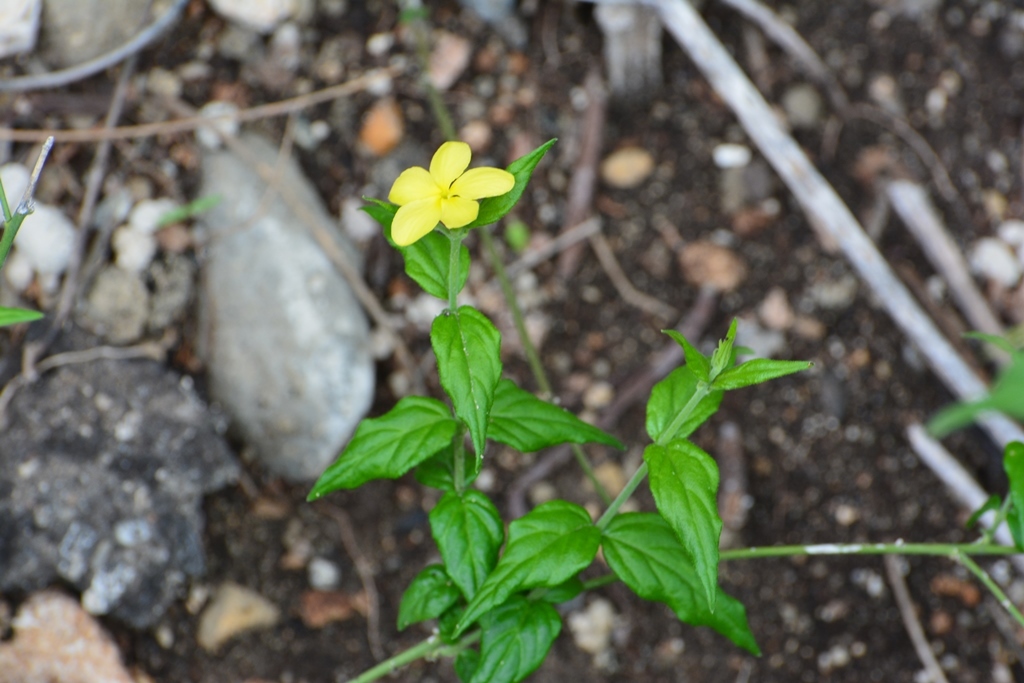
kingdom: Plantae
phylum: Tracheophyta
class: Magnoliopsida
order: Gentianales
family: Apocynaceae
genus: Haplophyton
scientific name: Haplophyton cimicidum
